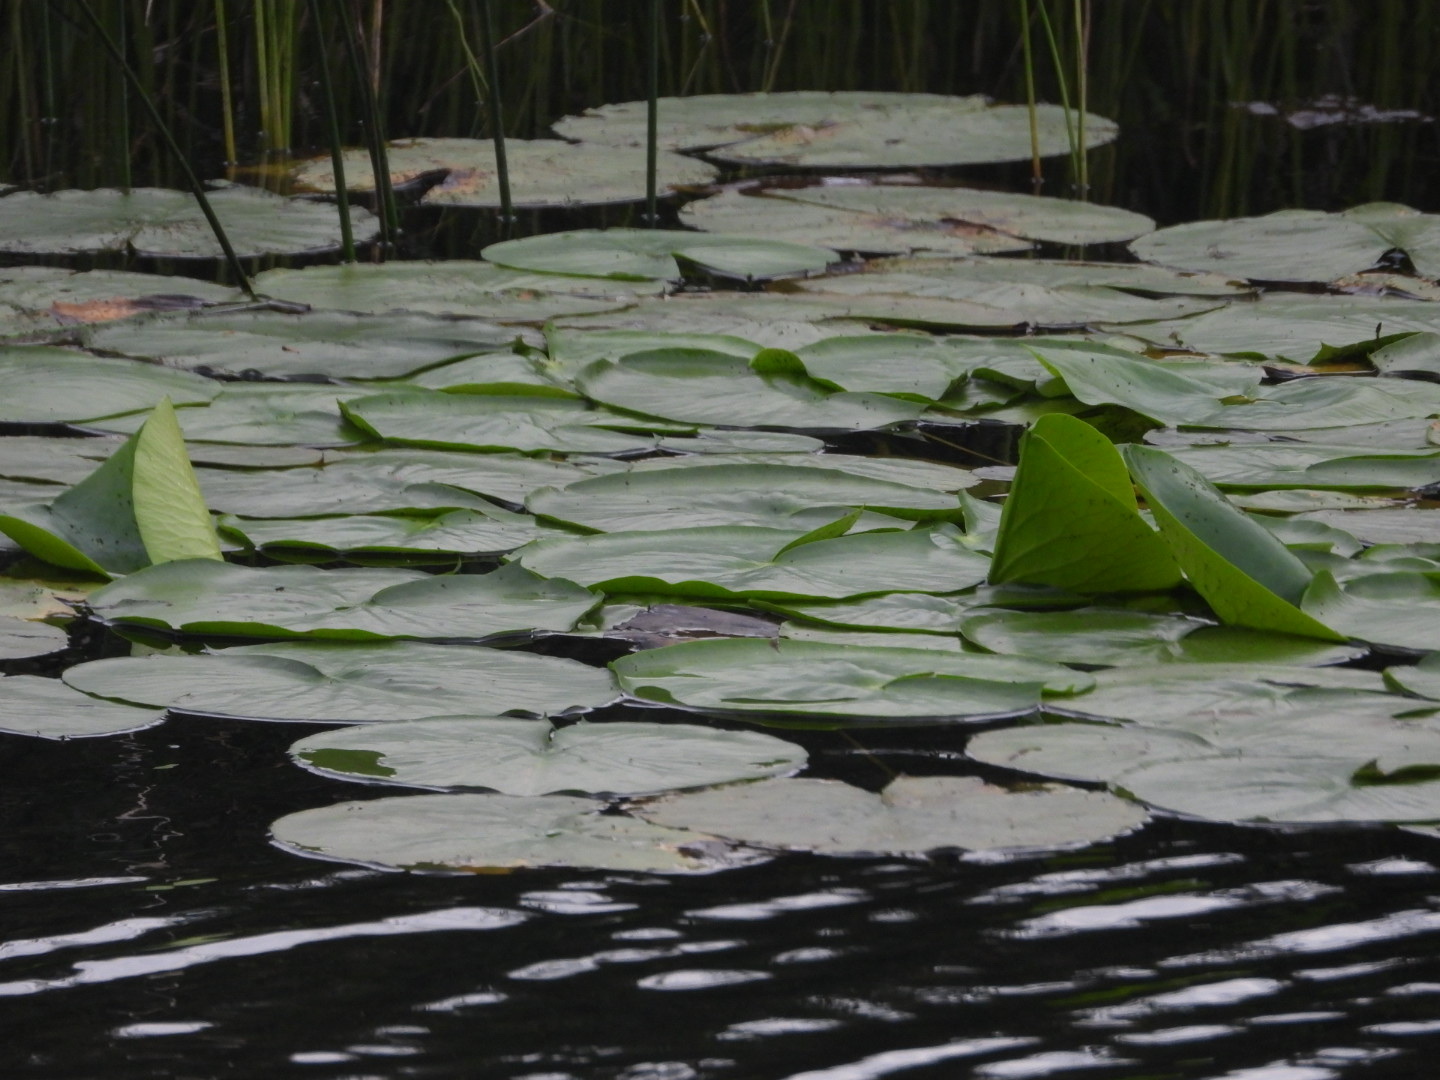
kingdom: Plantae
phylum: Tracheophyta
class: Magnoliopsida
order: Nymphaeales
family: Nymphaeaceae
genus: Nuphar
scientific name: Nuphar variegata
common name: Beaver-root
